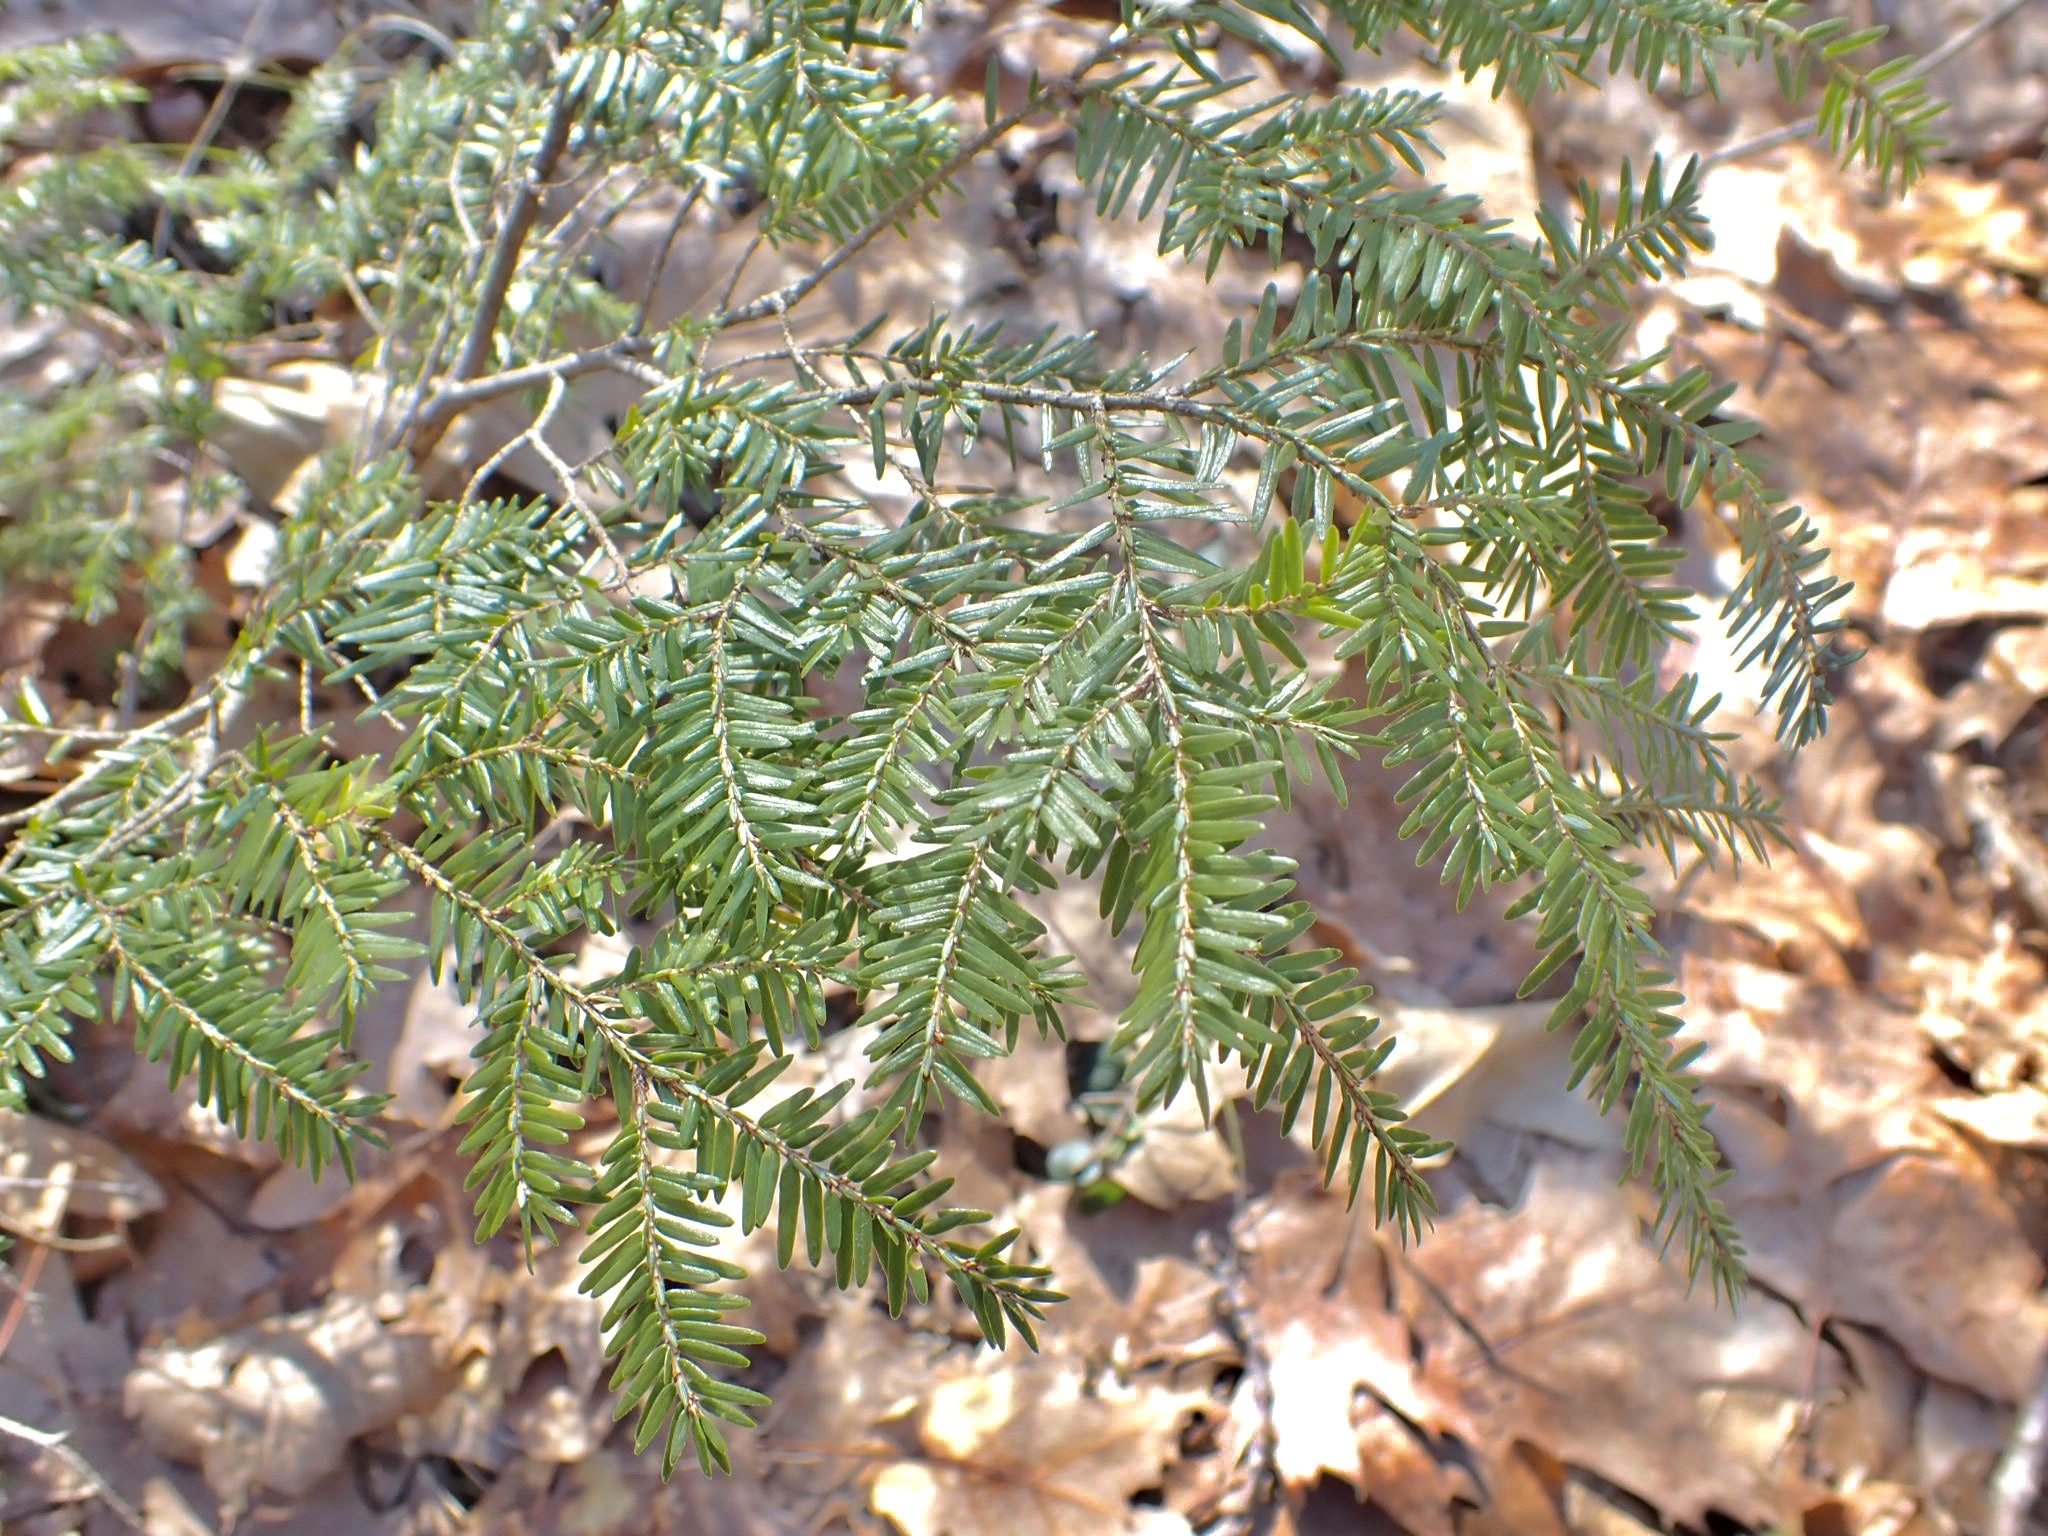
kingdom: Plantae
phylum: Tracheophyta
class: Pinopsida
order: Pinales
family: Pinaceae
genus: Tsuga
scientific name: Tsuga canadensis
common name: Eastern hemlock
